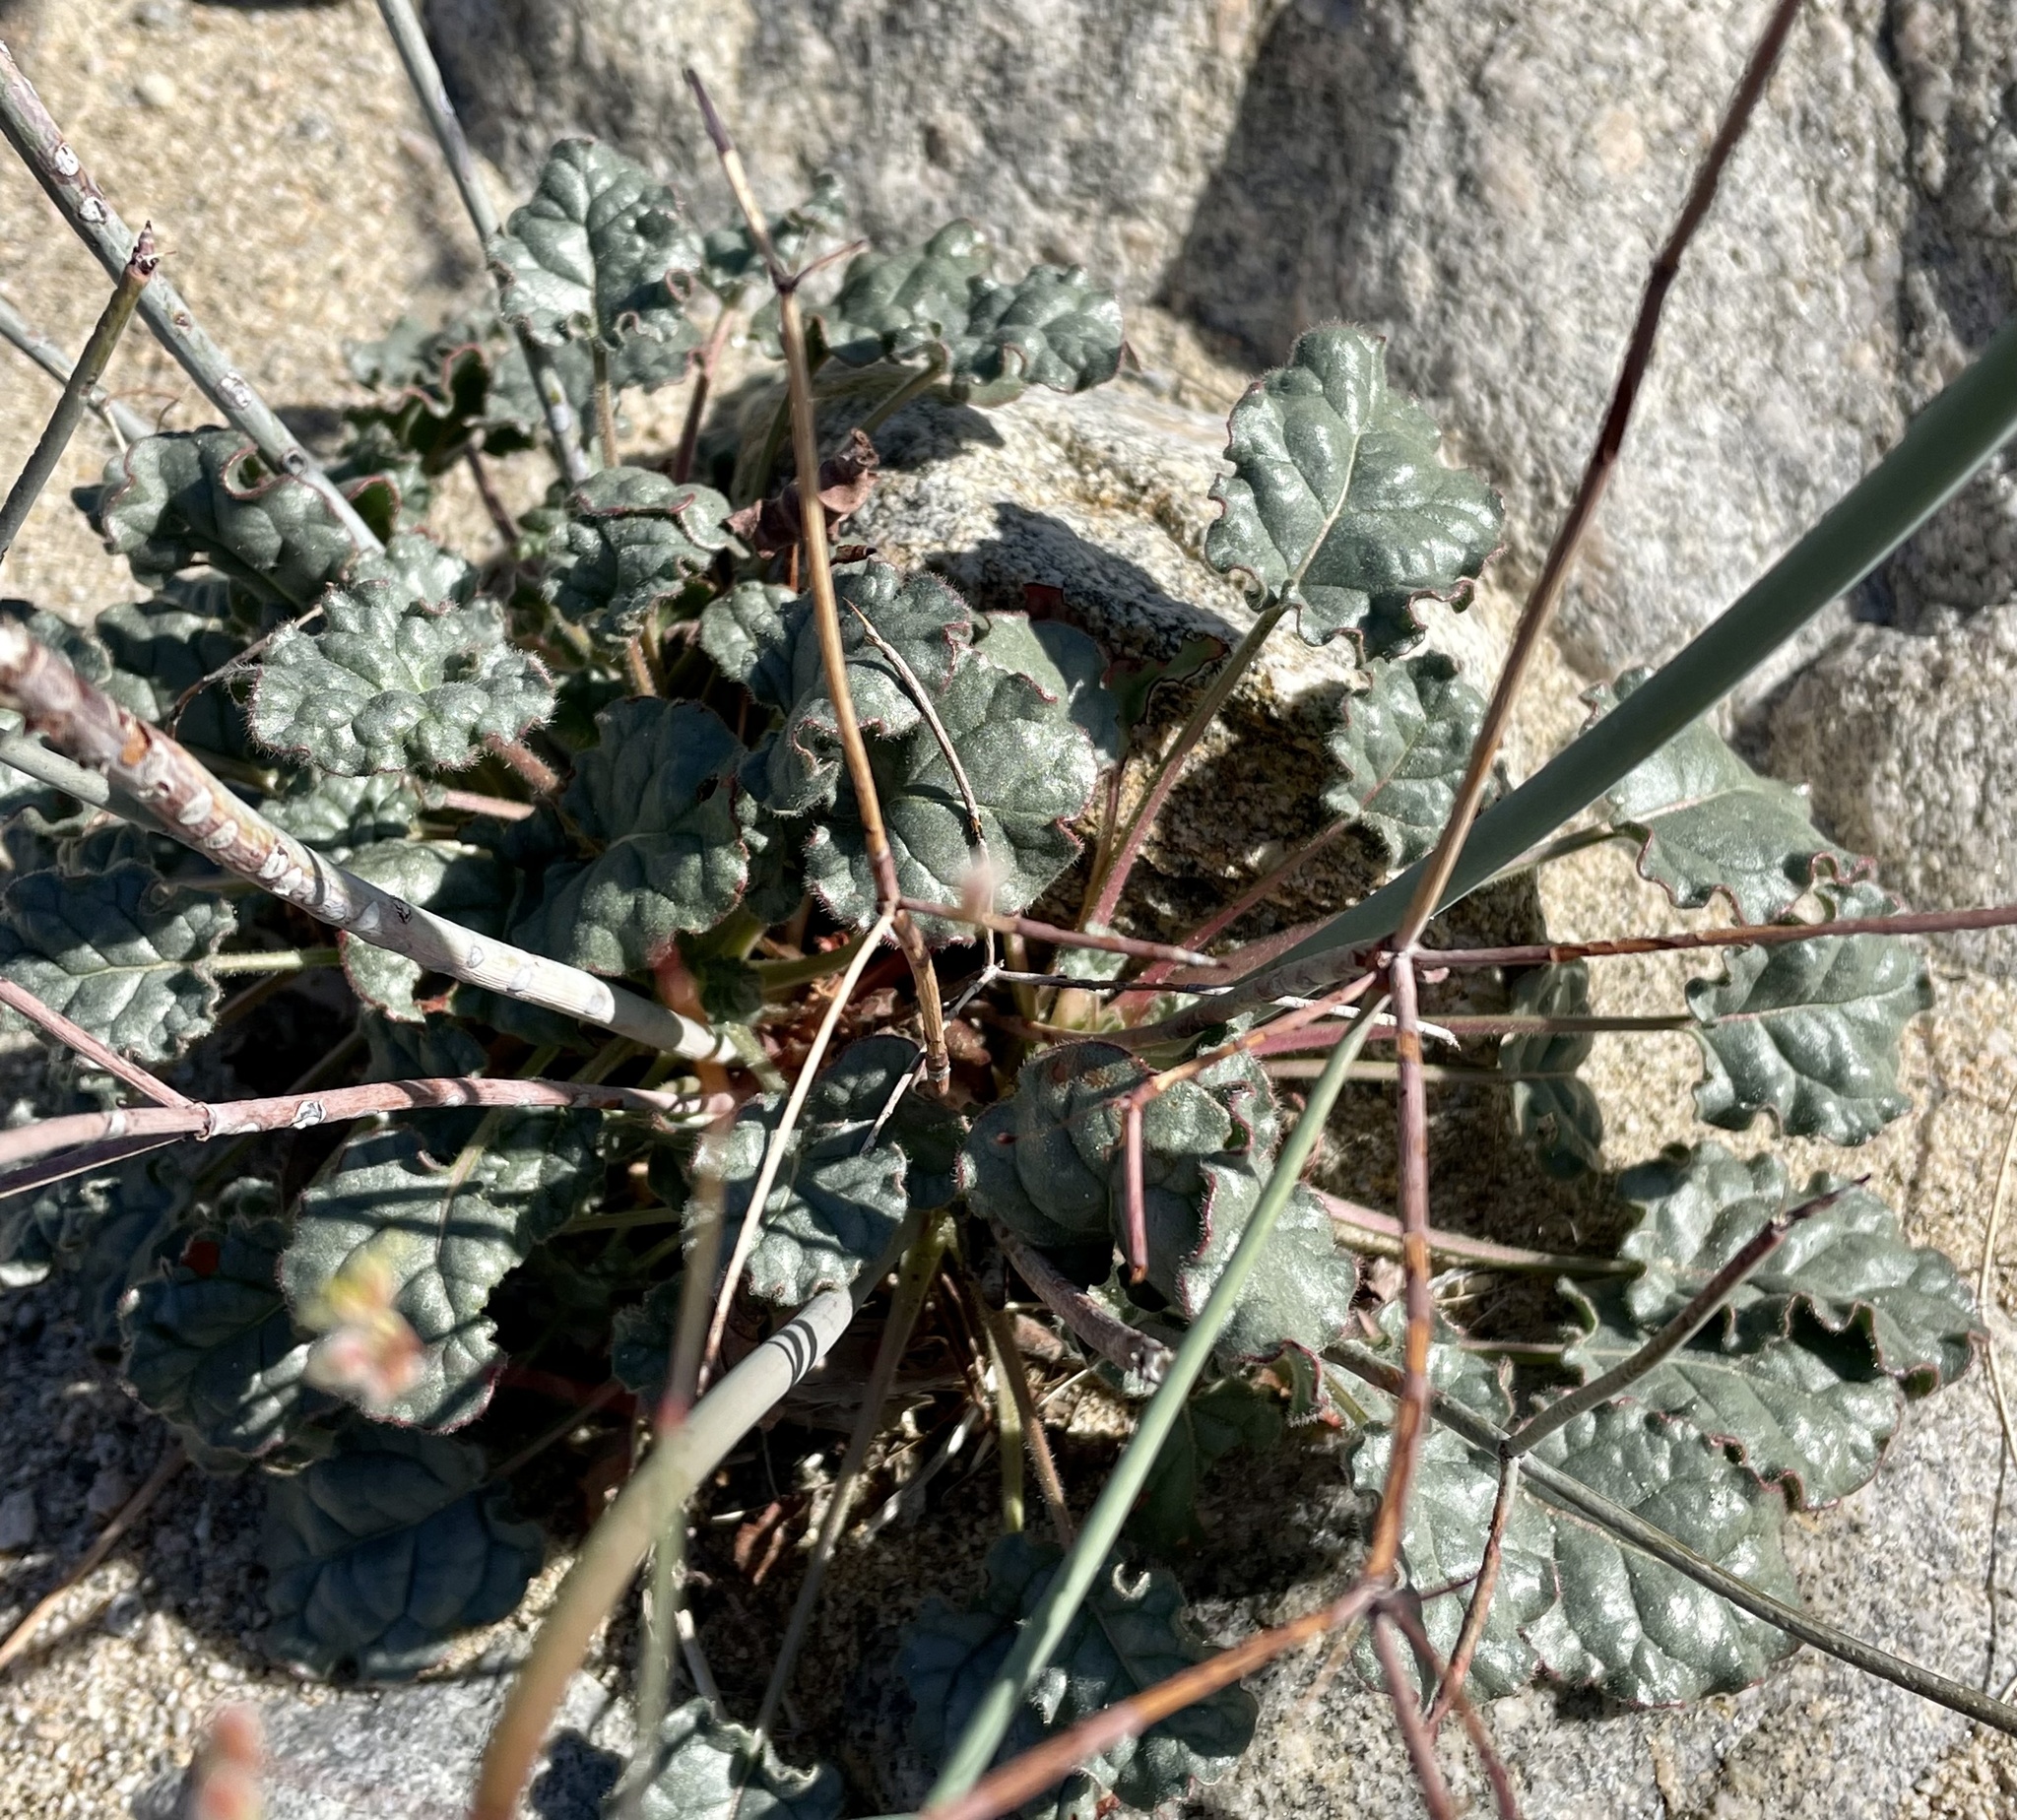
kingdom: Plantae
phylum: Tracheophyta
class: Magnoliopsida
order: Caryophyllales
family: Polygonaceae
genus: Eriogonum
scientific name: Eriogonum inflatum
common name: Desert trumpet
